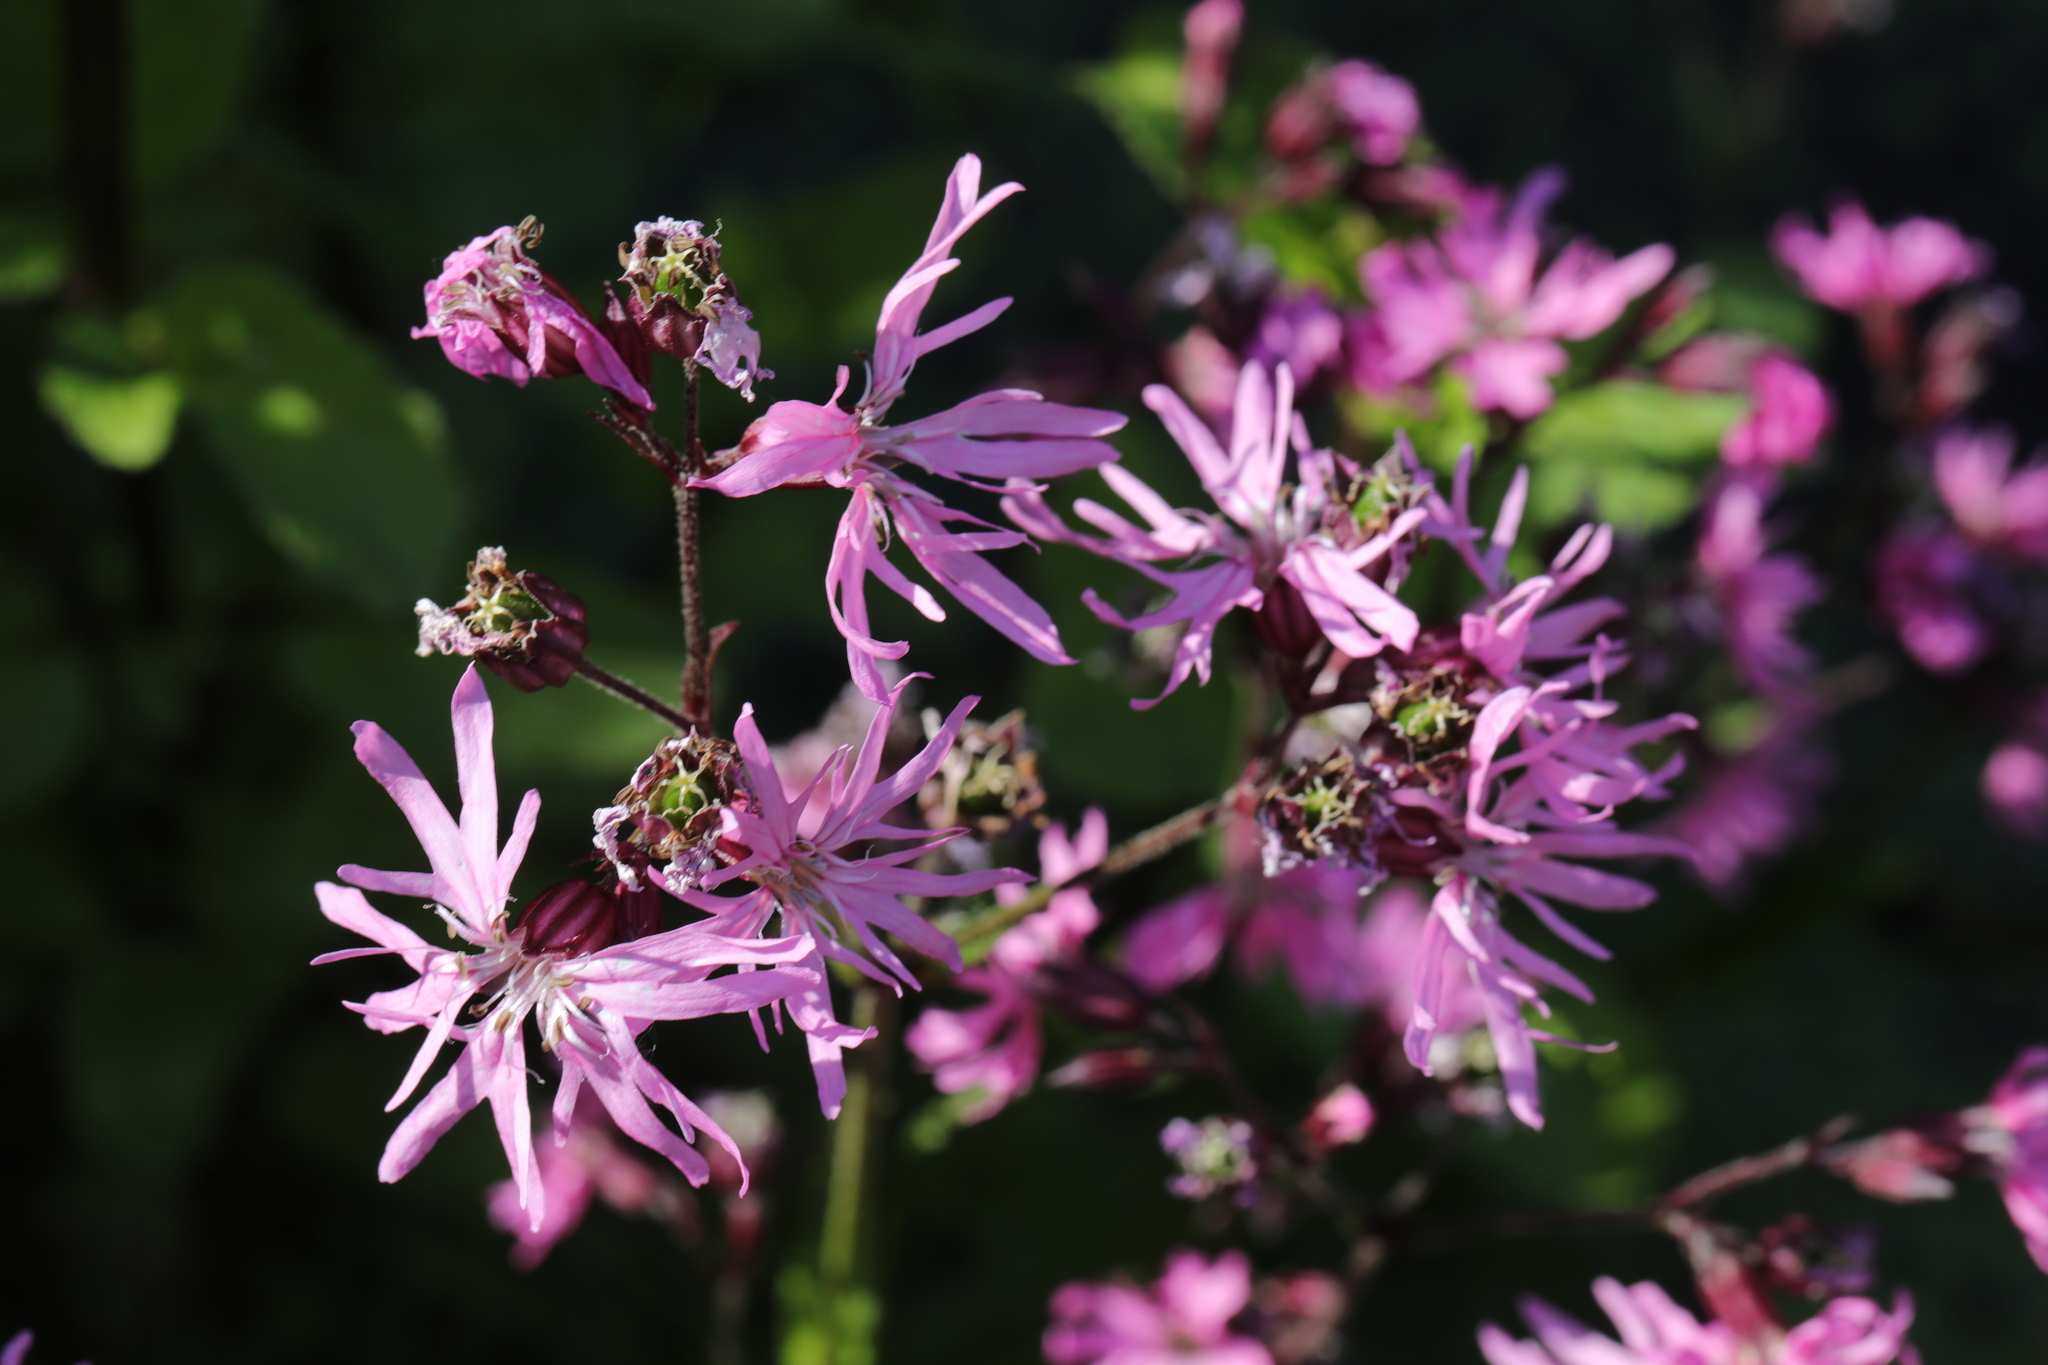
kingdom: Plantae
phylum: Tracheophyta
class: Magnoliopsida
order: Caryophyllales
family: Caryophyllaceae
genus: Silene
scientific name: Silene flos-cuculi
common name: Ragged-robin
